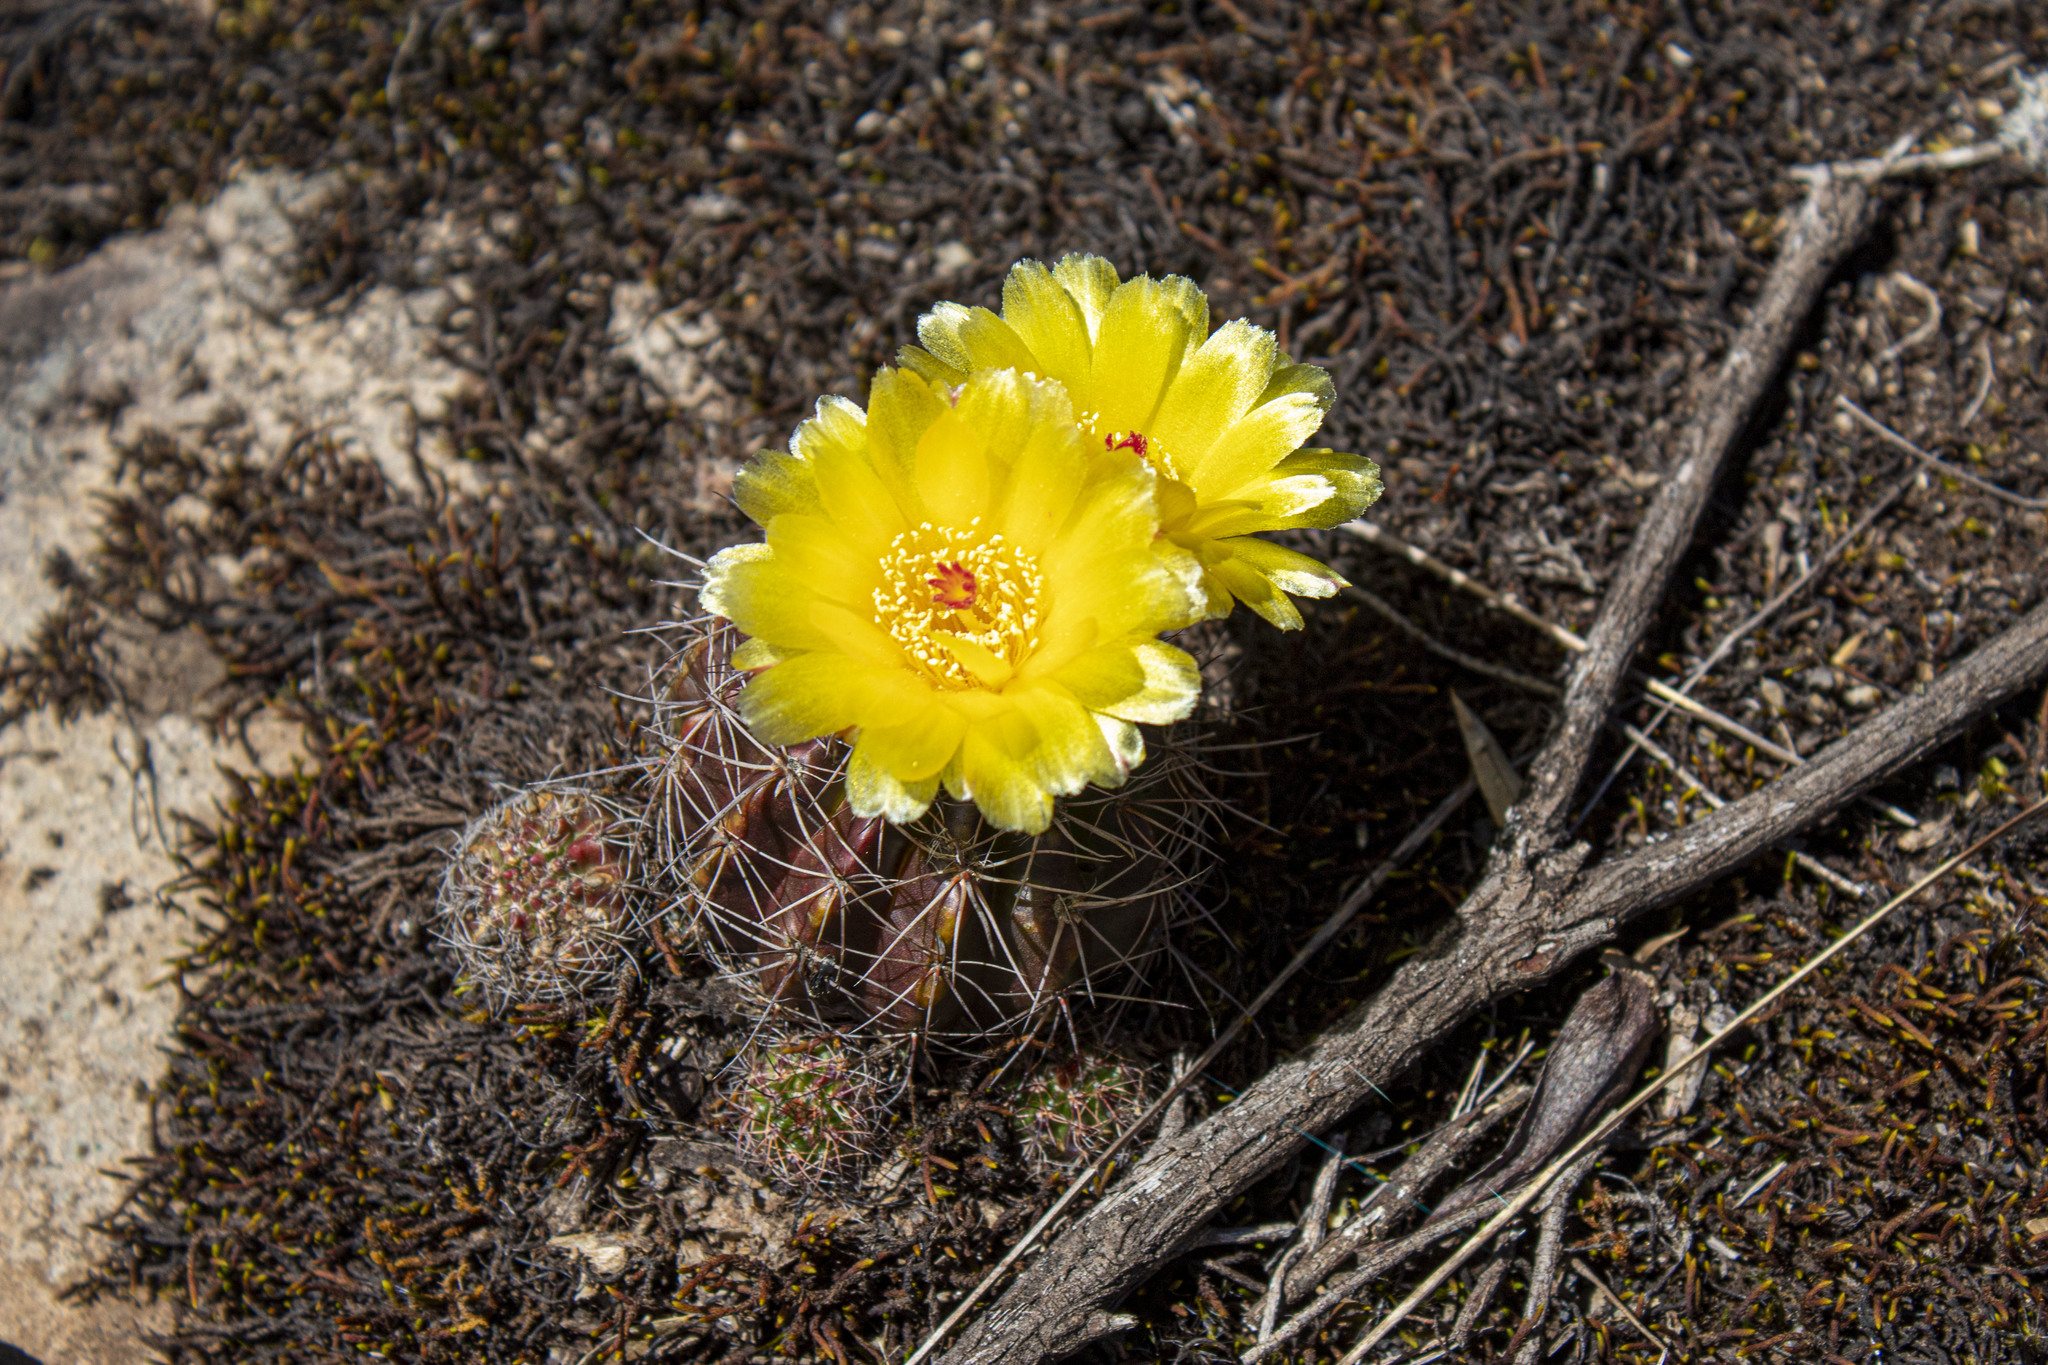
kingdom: Plantae
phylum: Tracheophyta
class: Magnoliopsida
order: Caryophyllales
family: Cactaceae
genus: Parodia
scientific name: Parodia linkii
